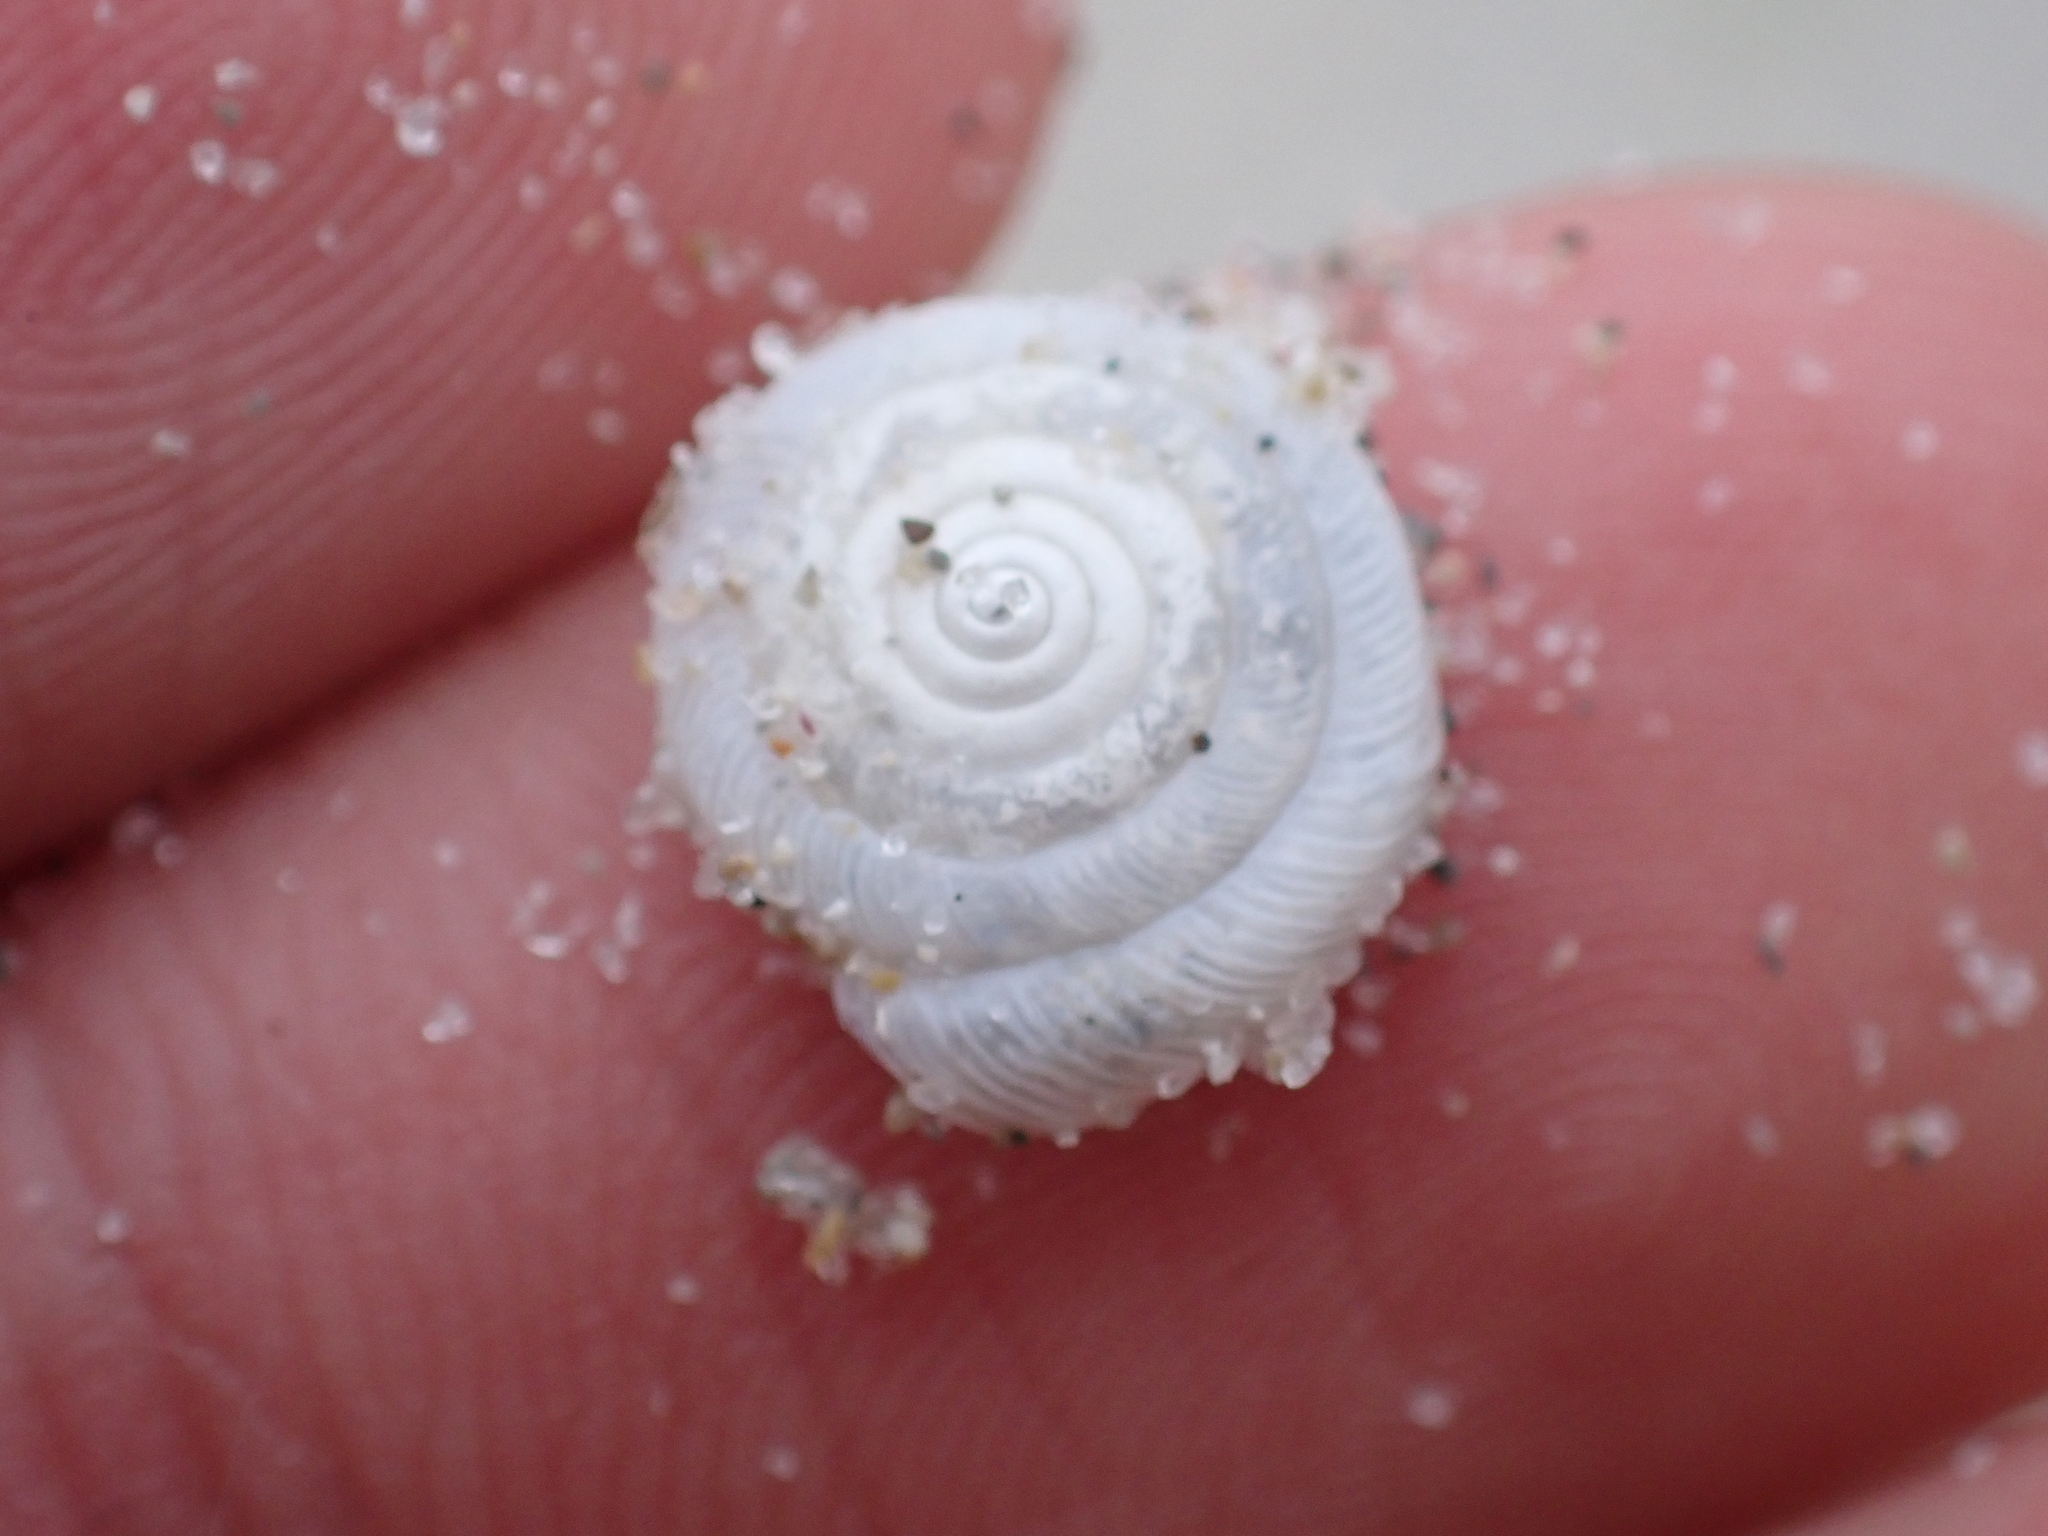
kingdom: Animalia
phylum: Mollusca
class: Gastropoda
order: Stylommatophora
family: Polygyridae
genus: Polygyra
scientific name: Polygyra cereolus
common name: Southern flatcone snail
